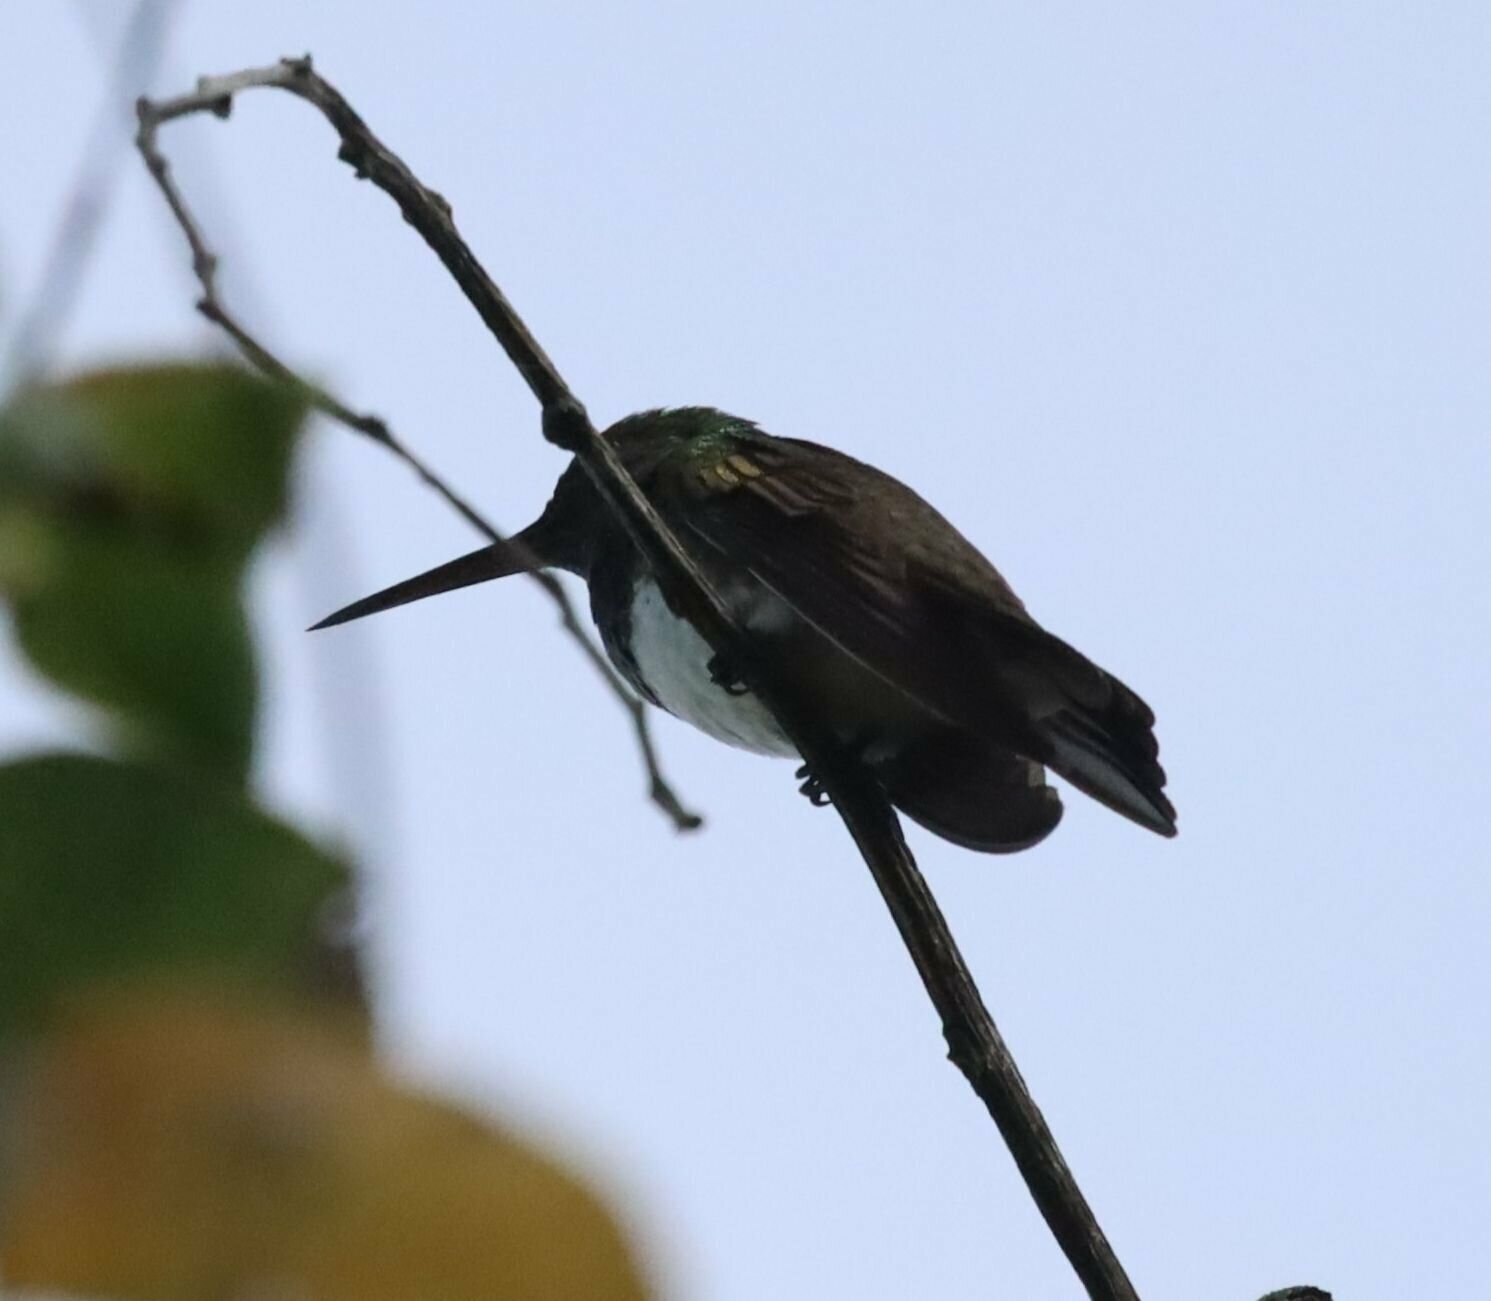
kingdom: Animalia
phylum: Chordata
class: Aves
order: Apodiformes
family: Trochilidae
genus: Saucerottia
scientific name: Saucerottia edward
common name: Snowy-bellied hummingbird
